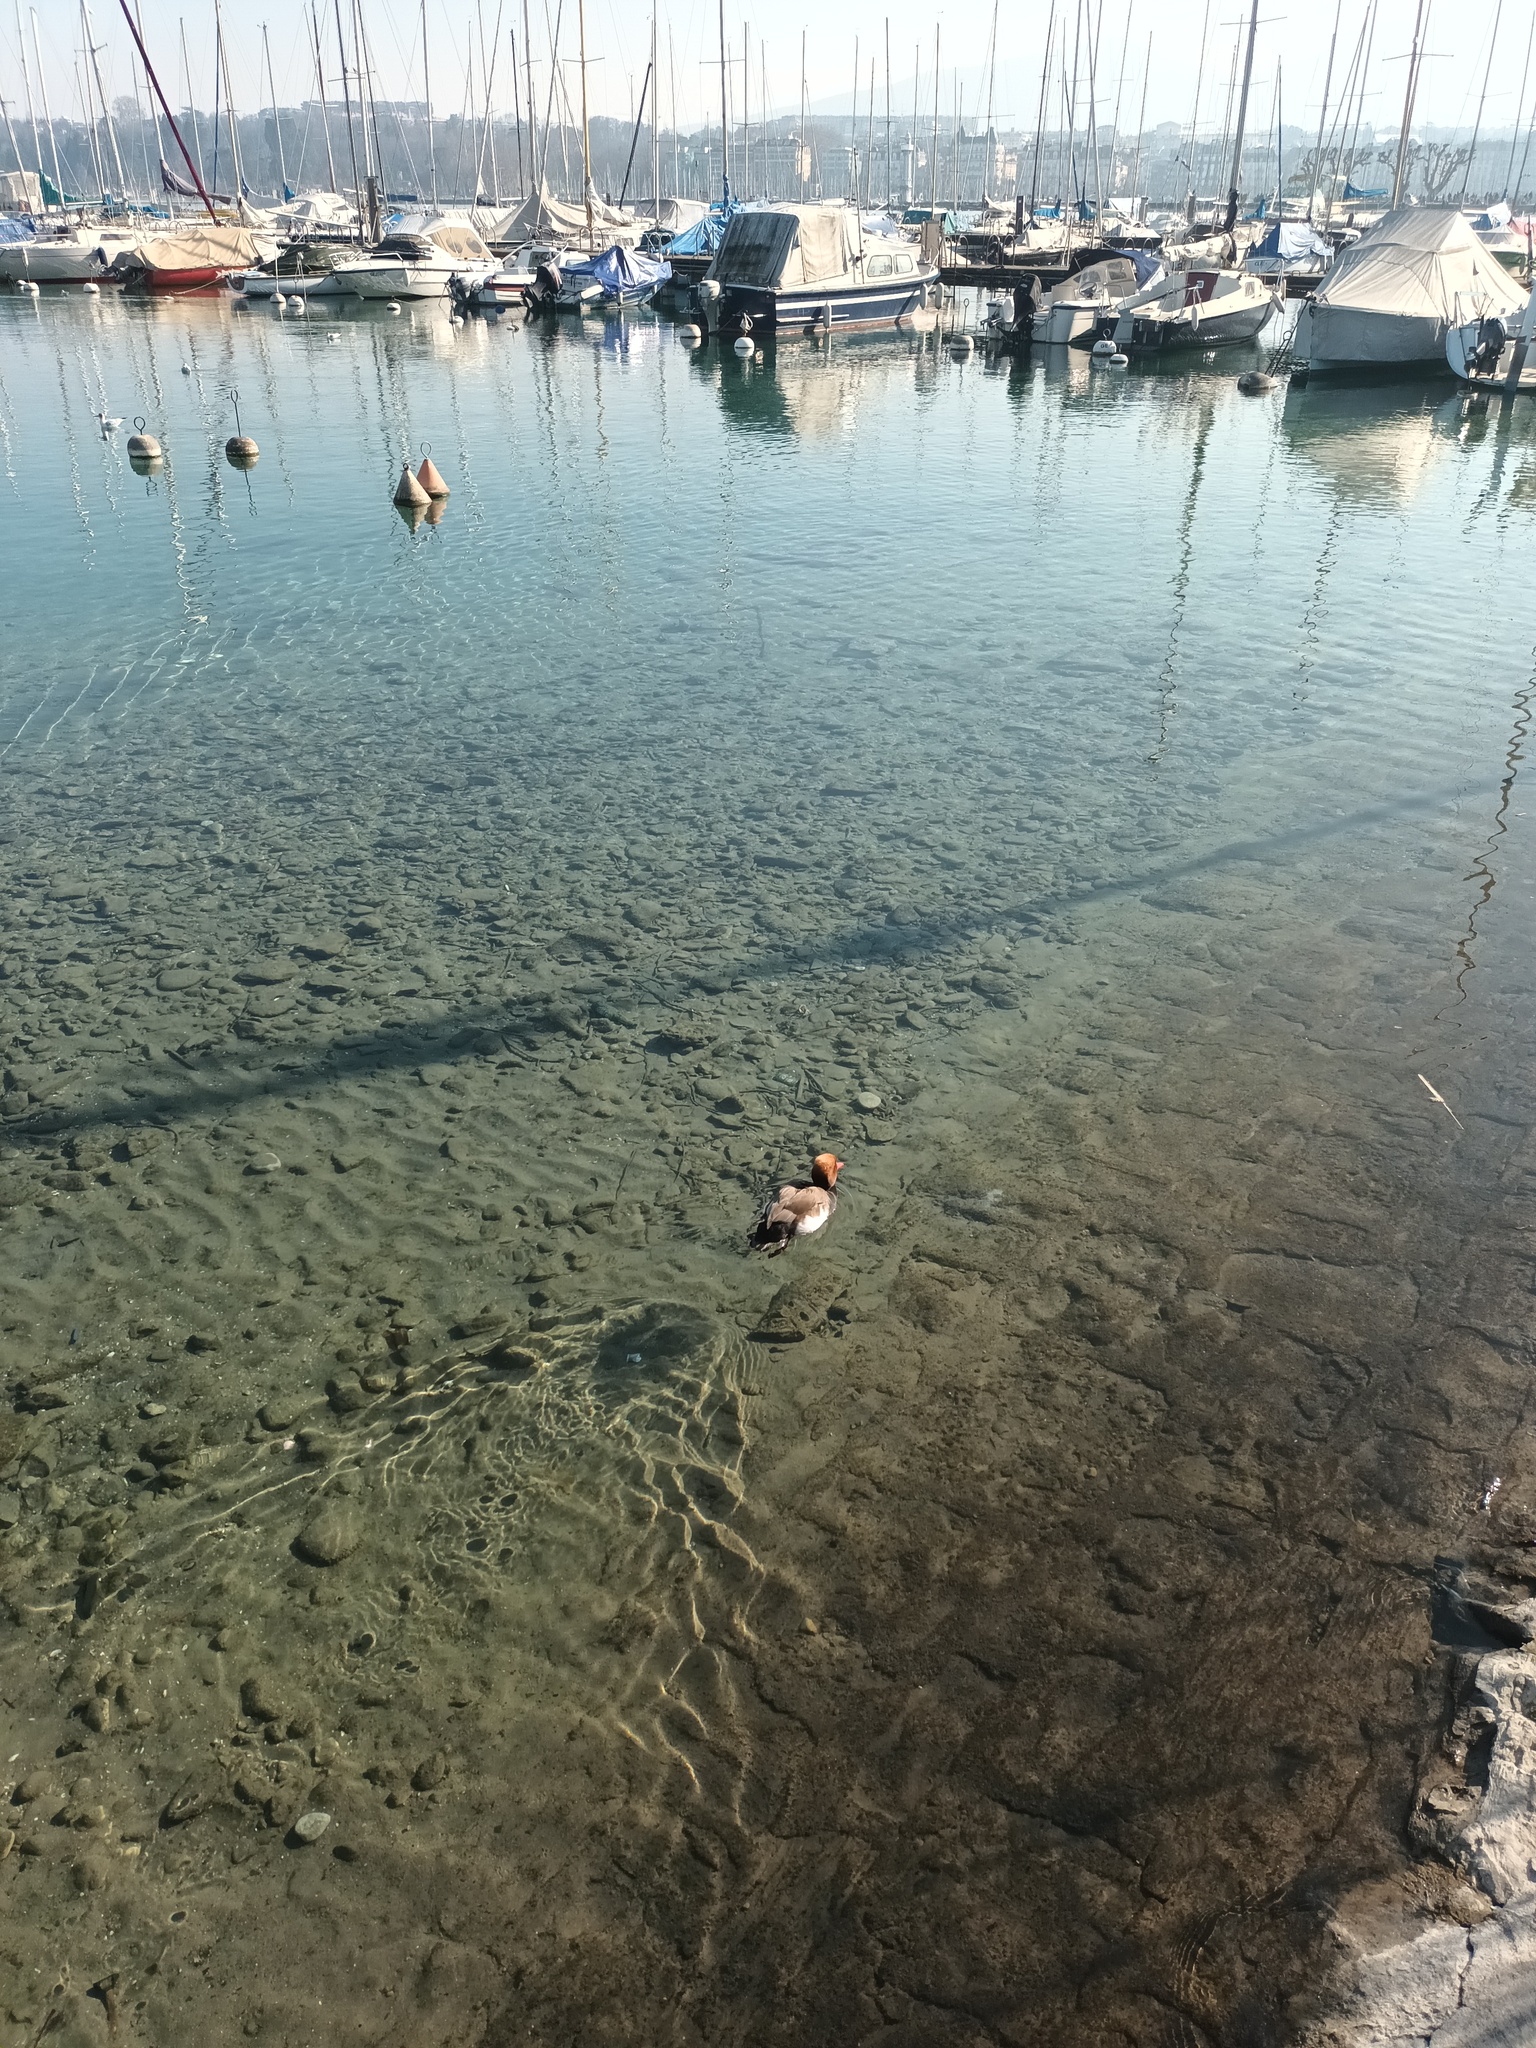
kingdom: Animalia
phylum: Chordata
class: Aves
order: Anseriformes
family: Anatidae
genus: Netta
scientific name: Netta rufina
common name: Red-crested pochard
